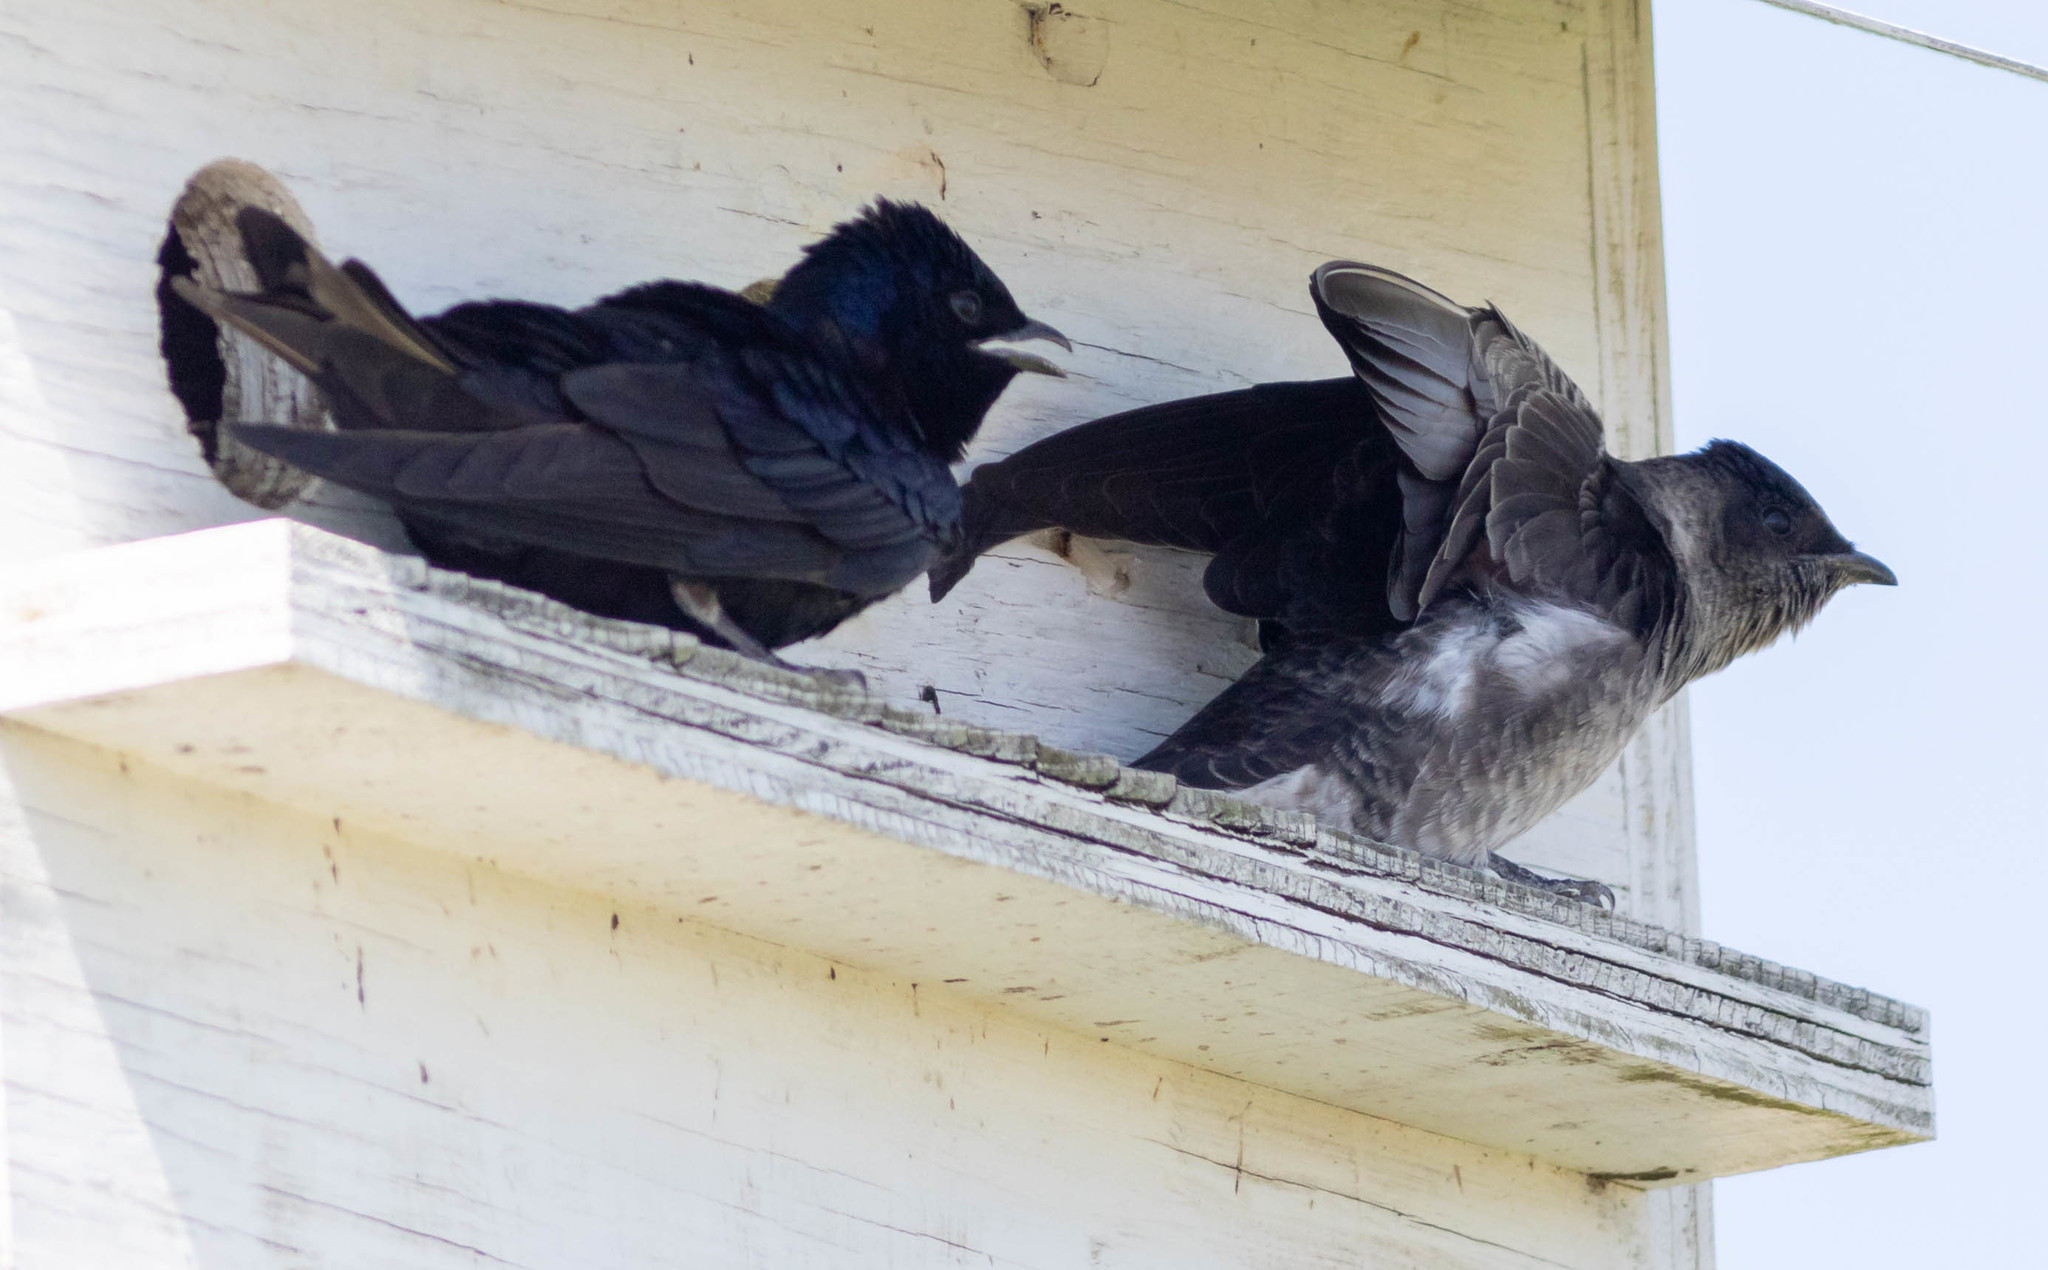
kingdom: Animalia
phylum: Chordata
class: Aves
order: Passeriformes
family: Hirundinidae
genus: Progne
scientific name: Progne subis
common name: Purple martin
